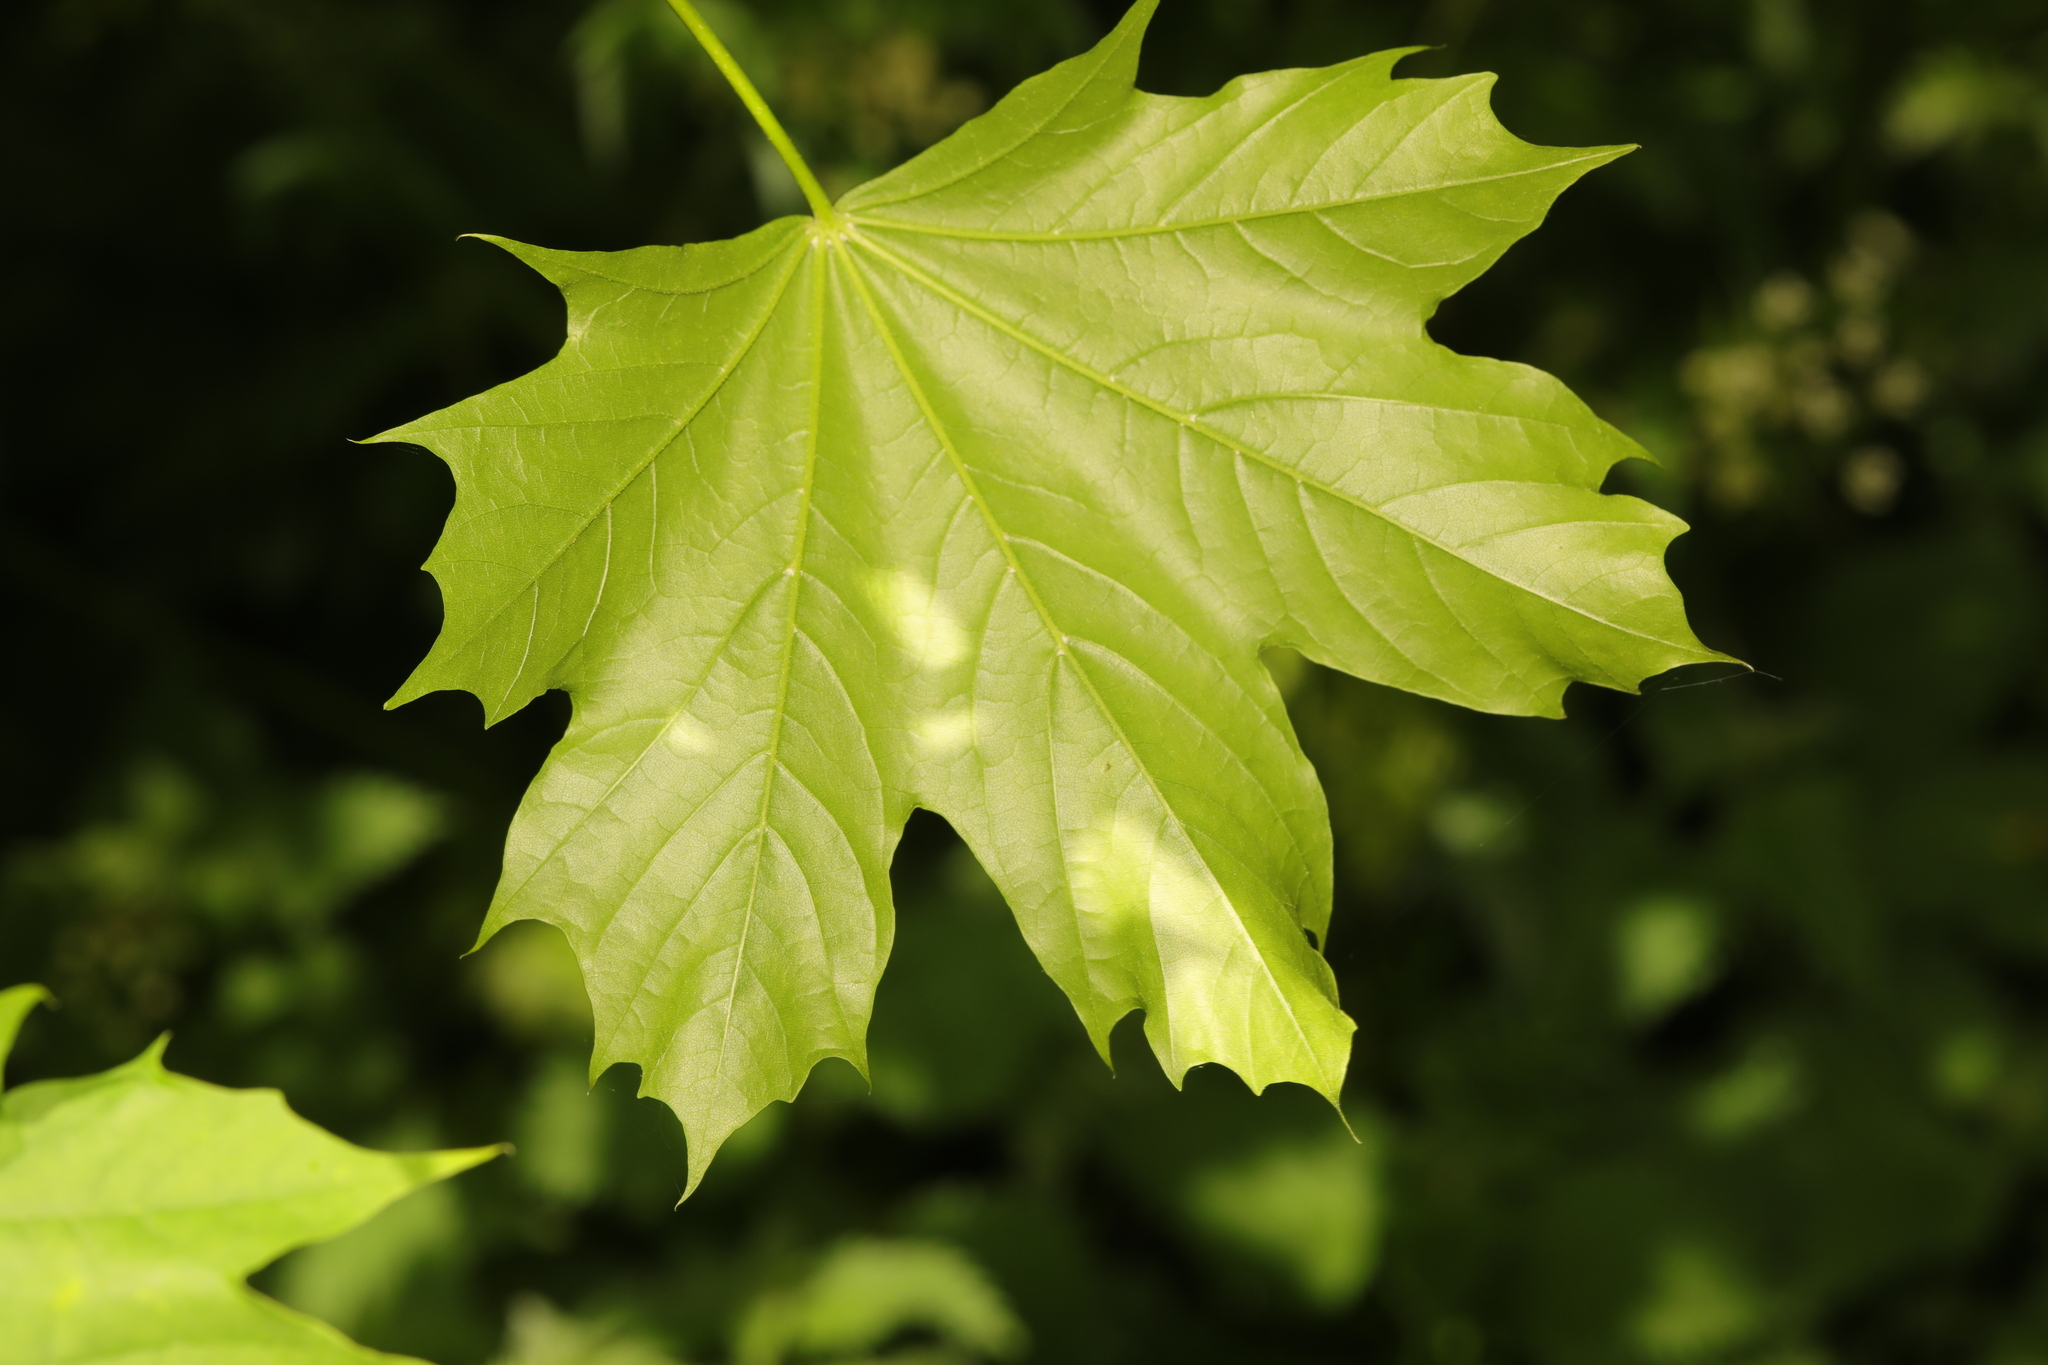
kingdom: Plantae
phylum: Tracheophyta
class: Magnoliopsida
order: Sapindales
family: Sapindaceae
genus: Acer
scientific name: Acer platanoides
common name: Norway maple
